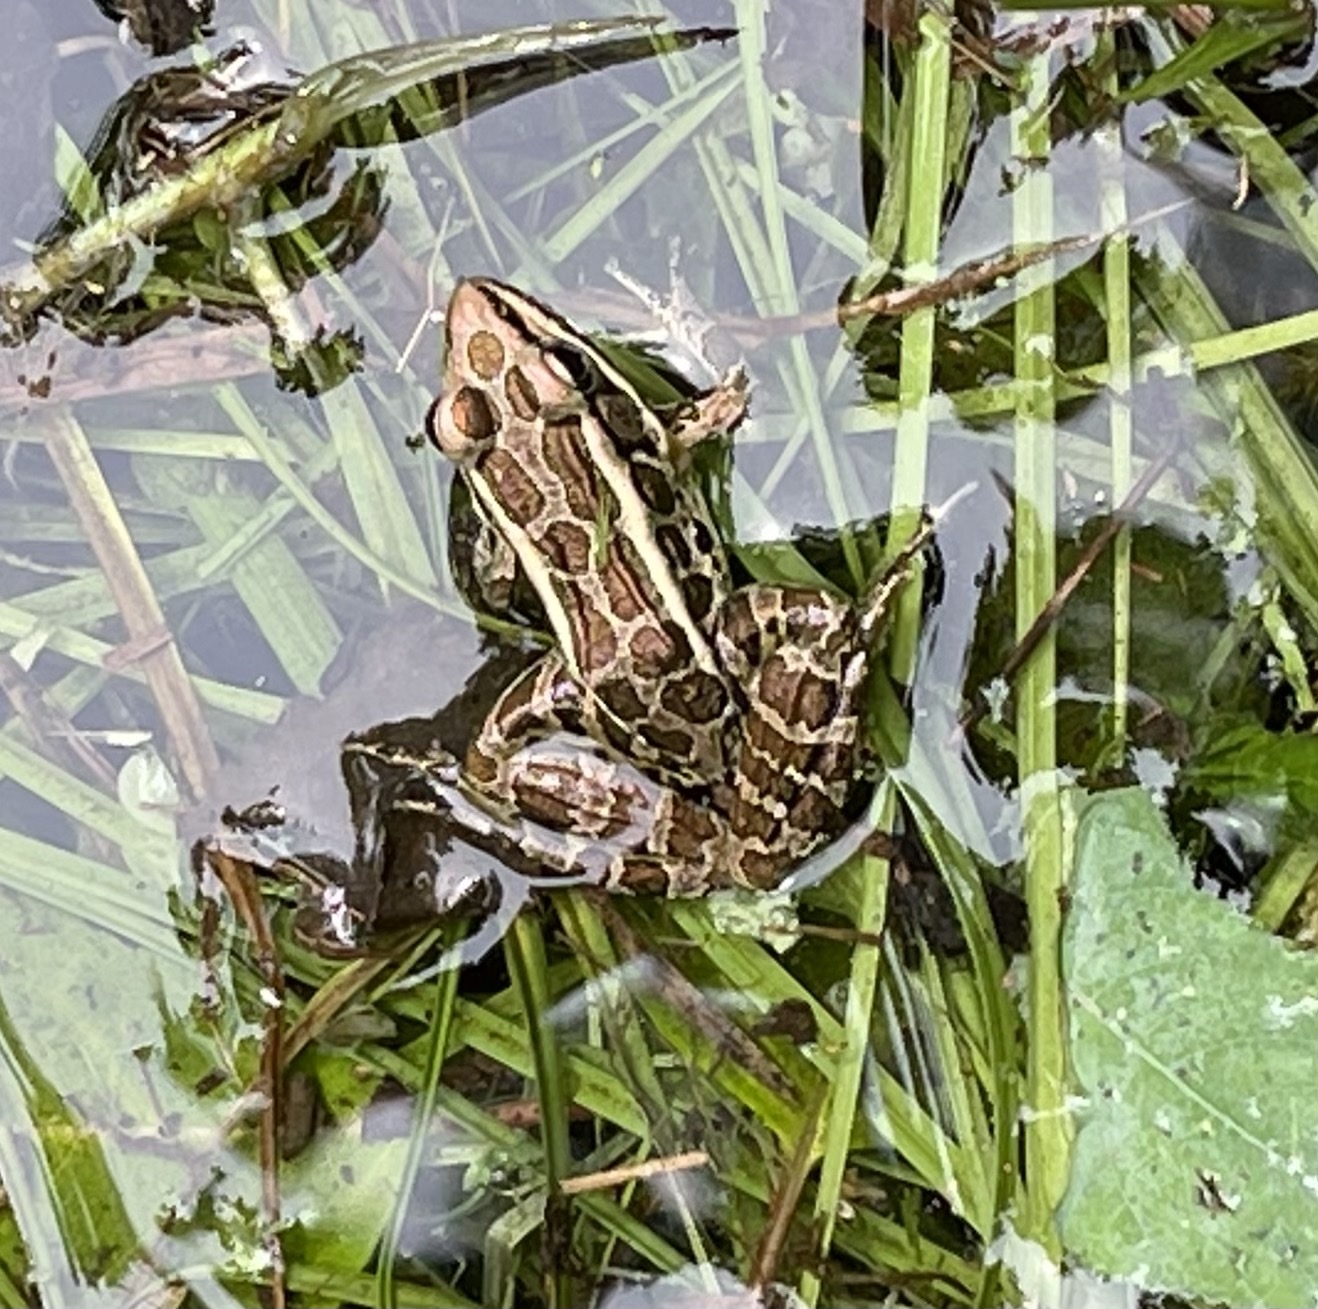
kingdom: Animalia
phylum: Chordata
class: Amphibia
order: Anura
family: Ranidae
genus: Lithobates
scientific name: Lithobates palustris
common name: Pickerel frog
